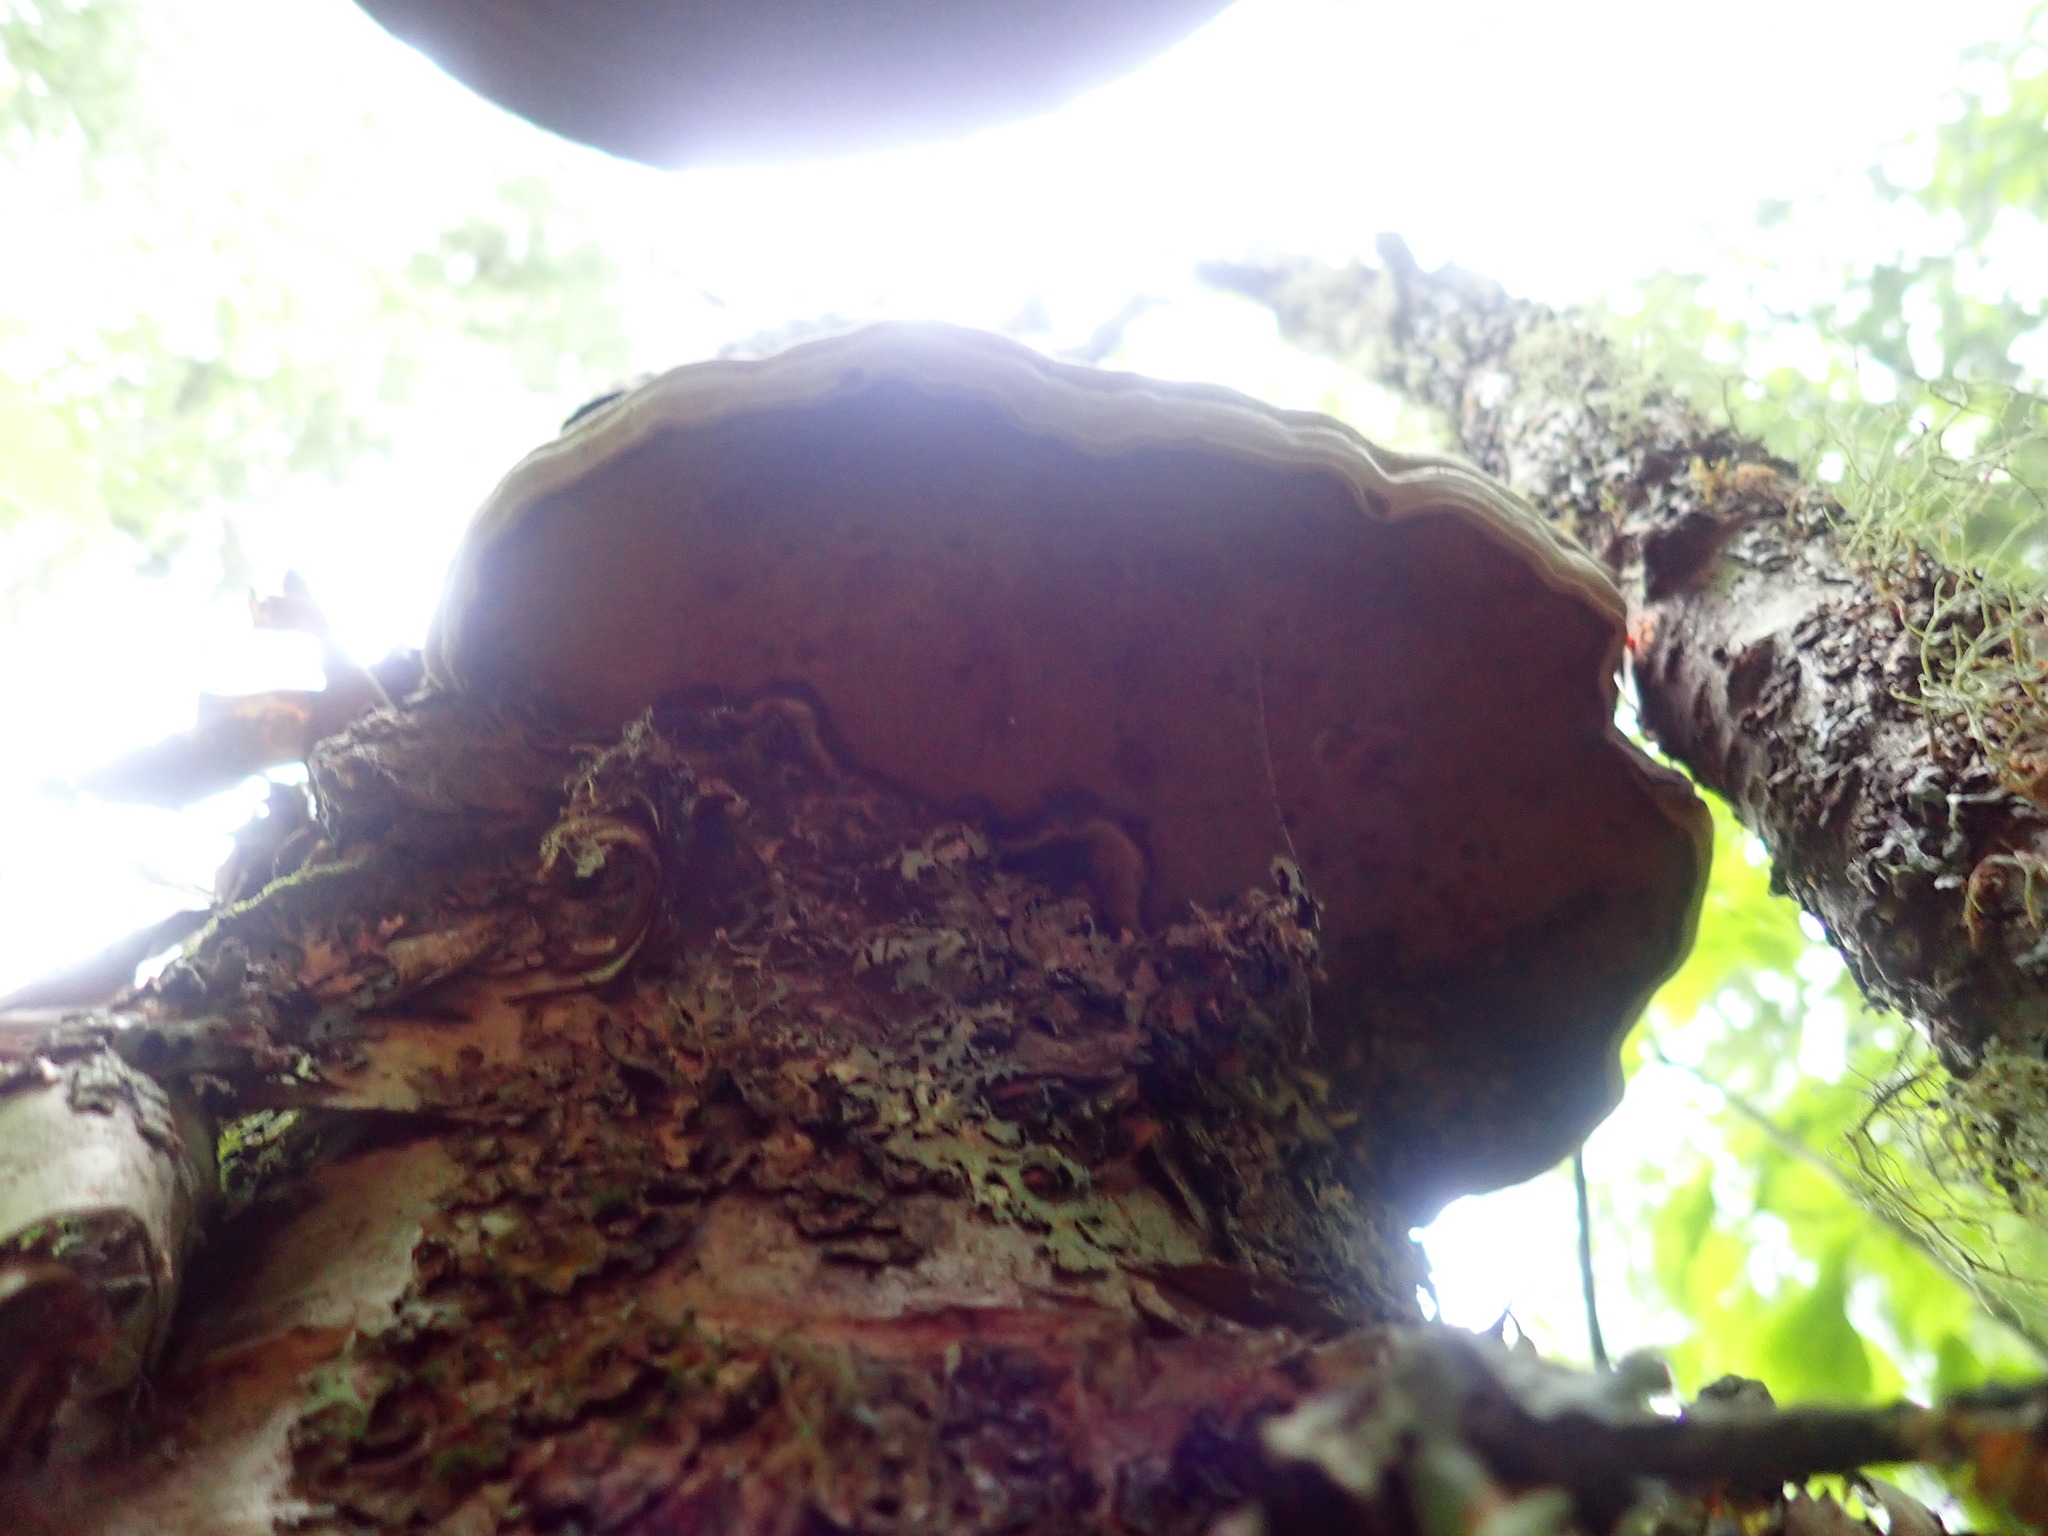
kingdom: Fungi
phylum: Basidiomycota
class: Agaricomycetes
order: Polyporales
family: Polyporaceae
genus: Fomes
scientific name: Fomes fomentarius
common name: Hoof fungus
